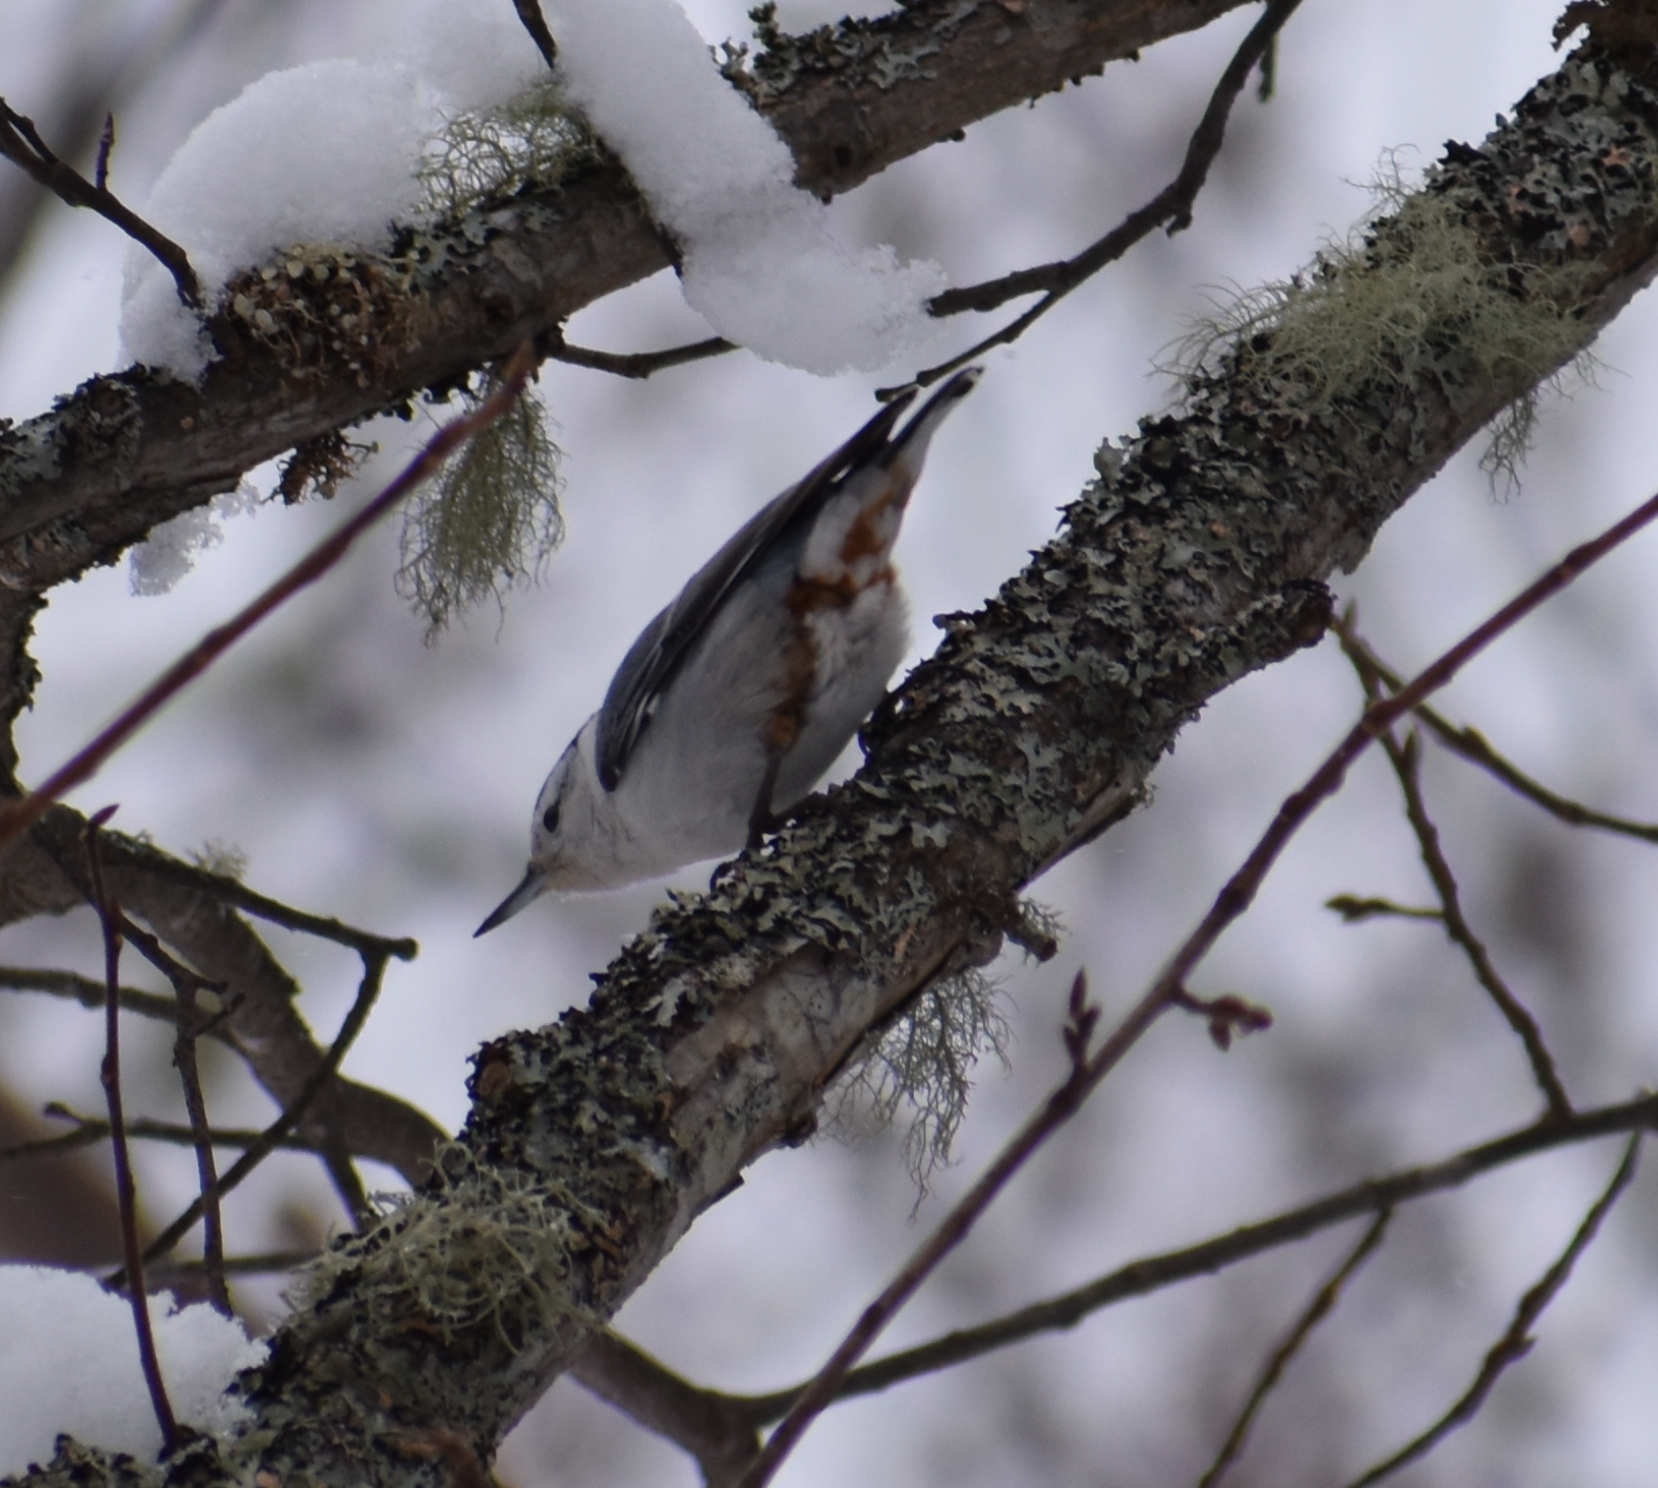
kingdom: Animalia
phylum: Chordata
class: Aves
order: Passeriformes
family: Sittidae
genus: Sitta
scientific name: Sitta carolinensis
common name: White-breasted nuthatch
